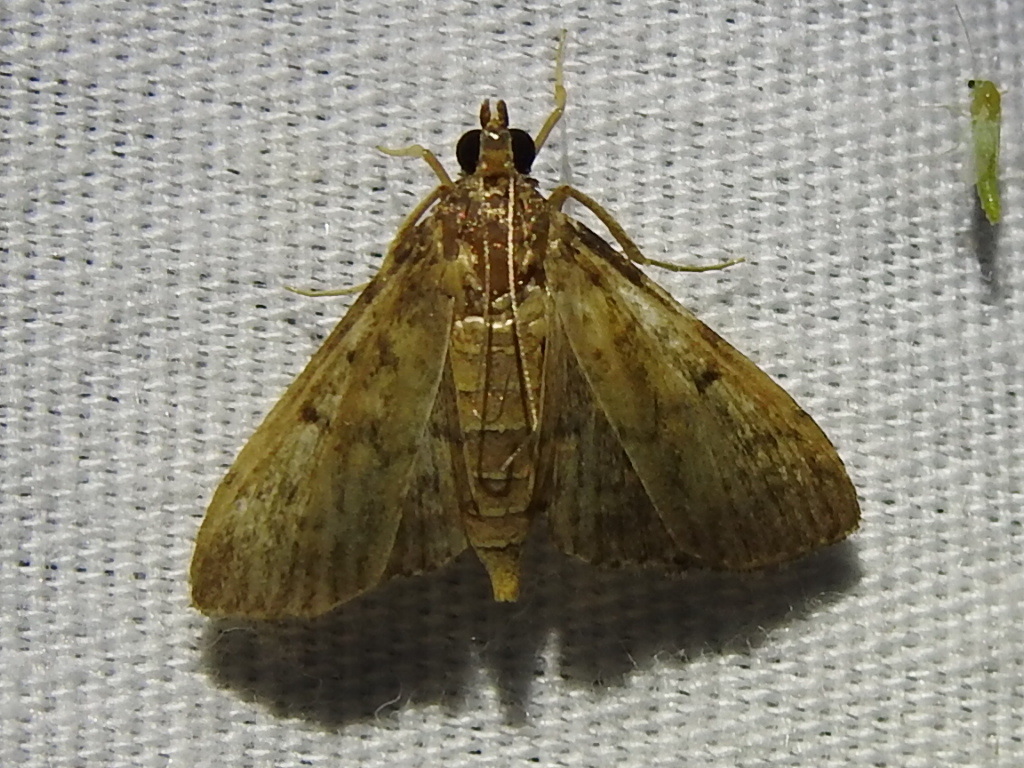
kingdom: Animalia
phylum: Arthropoda
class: Insecta
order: Lepidoptera
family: Crambidae
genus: Herpetogramma
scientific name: Herpetogramma phaeopteralis
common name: Dusky herpetogramma moth
